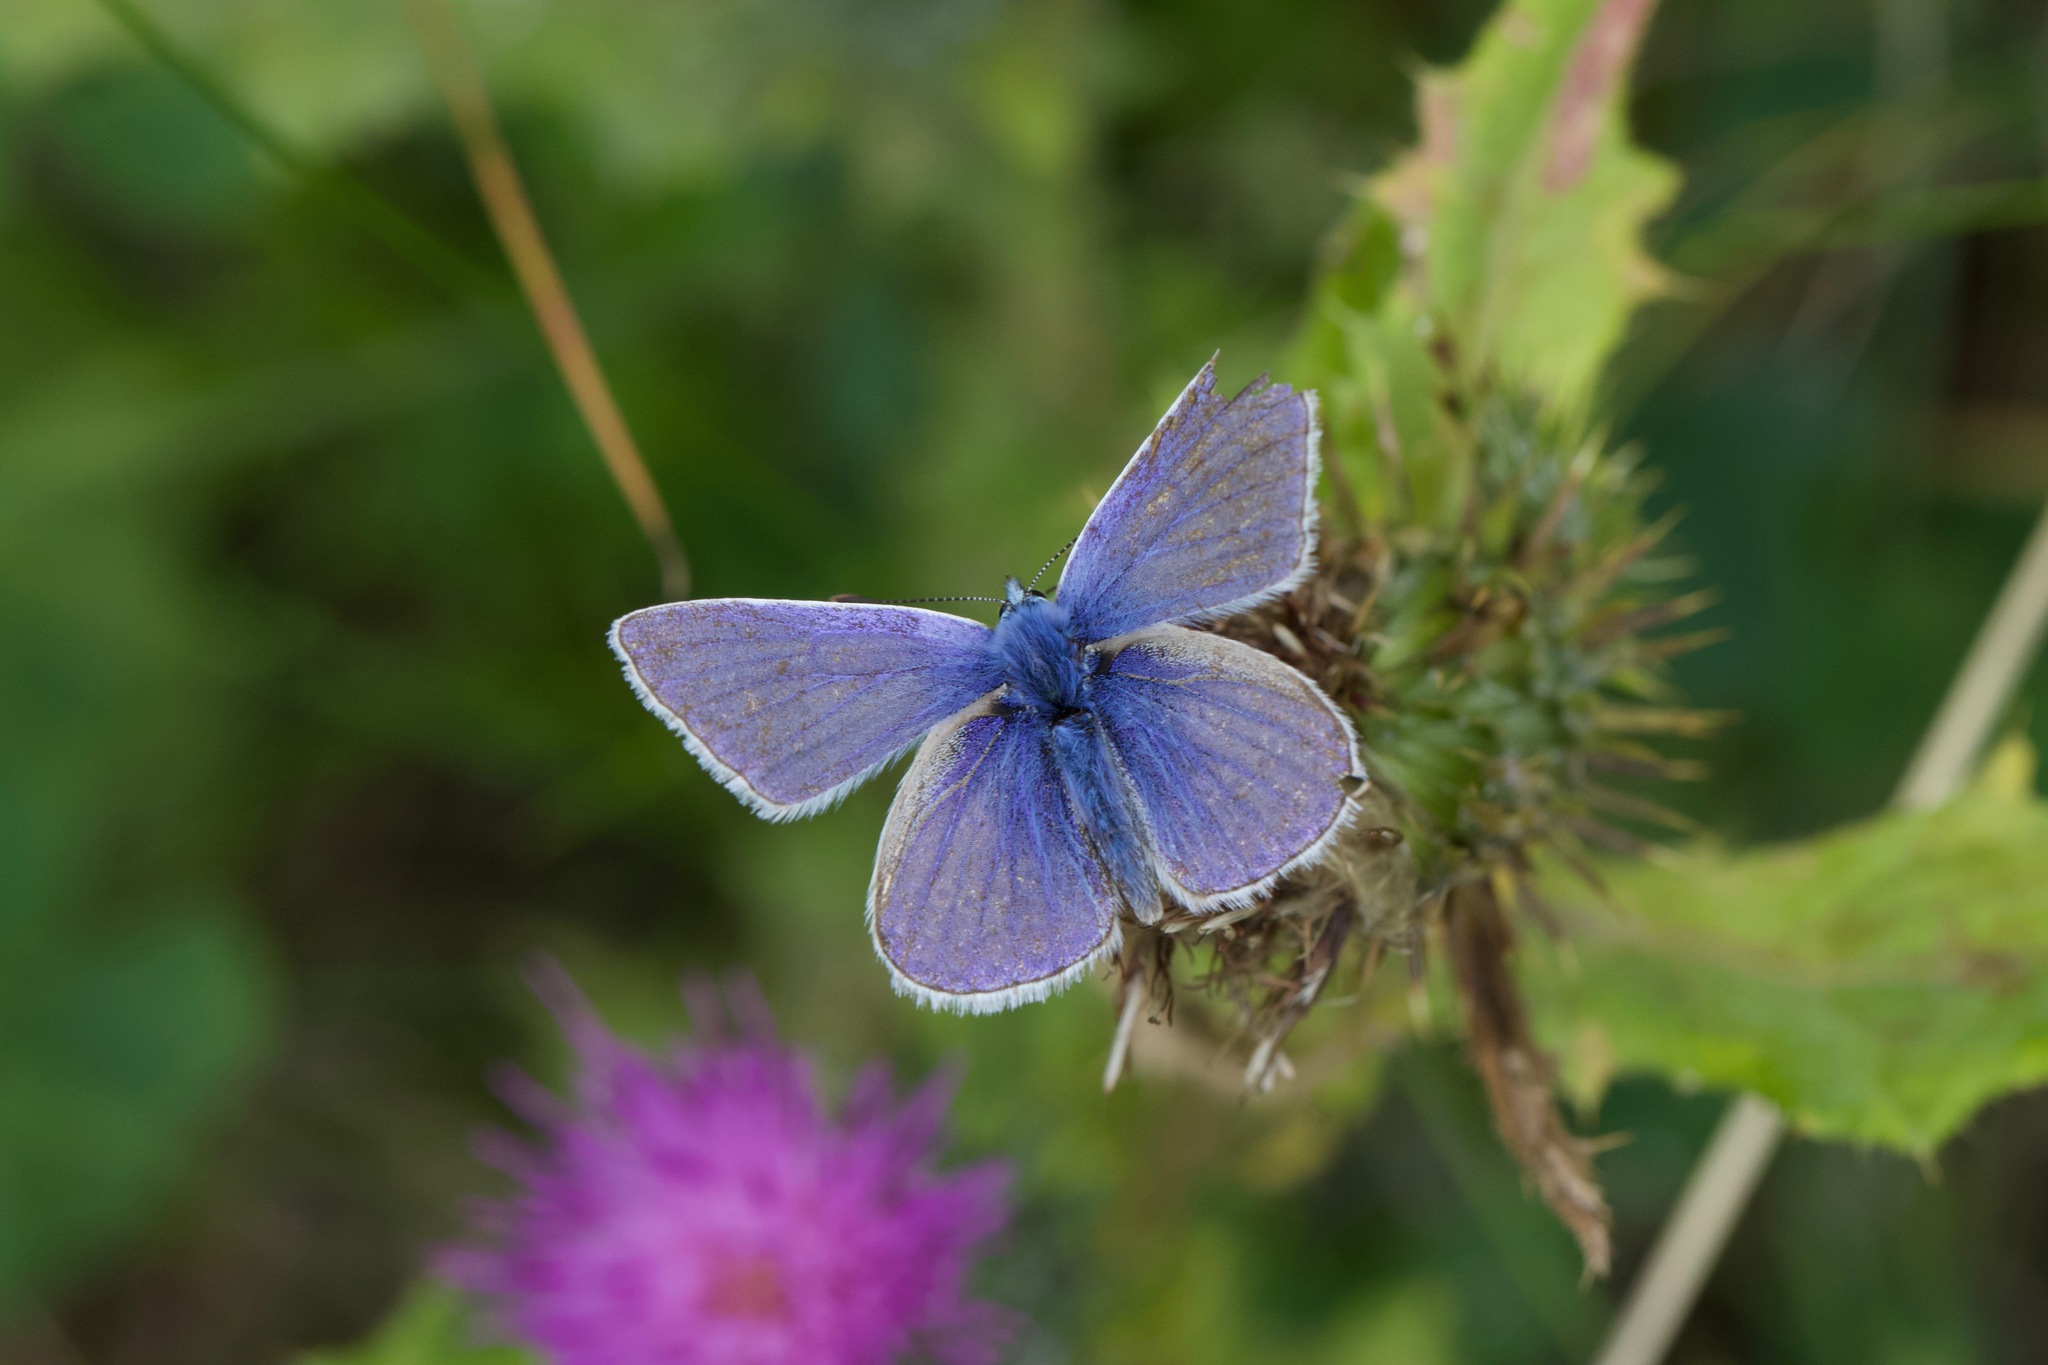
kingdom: Animalia
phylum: Arthropoda
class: Insecta
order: Lepidoptera
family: Lycaenidae
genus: Polyommatus
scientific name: Polyommatus icarus
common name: Common blue
